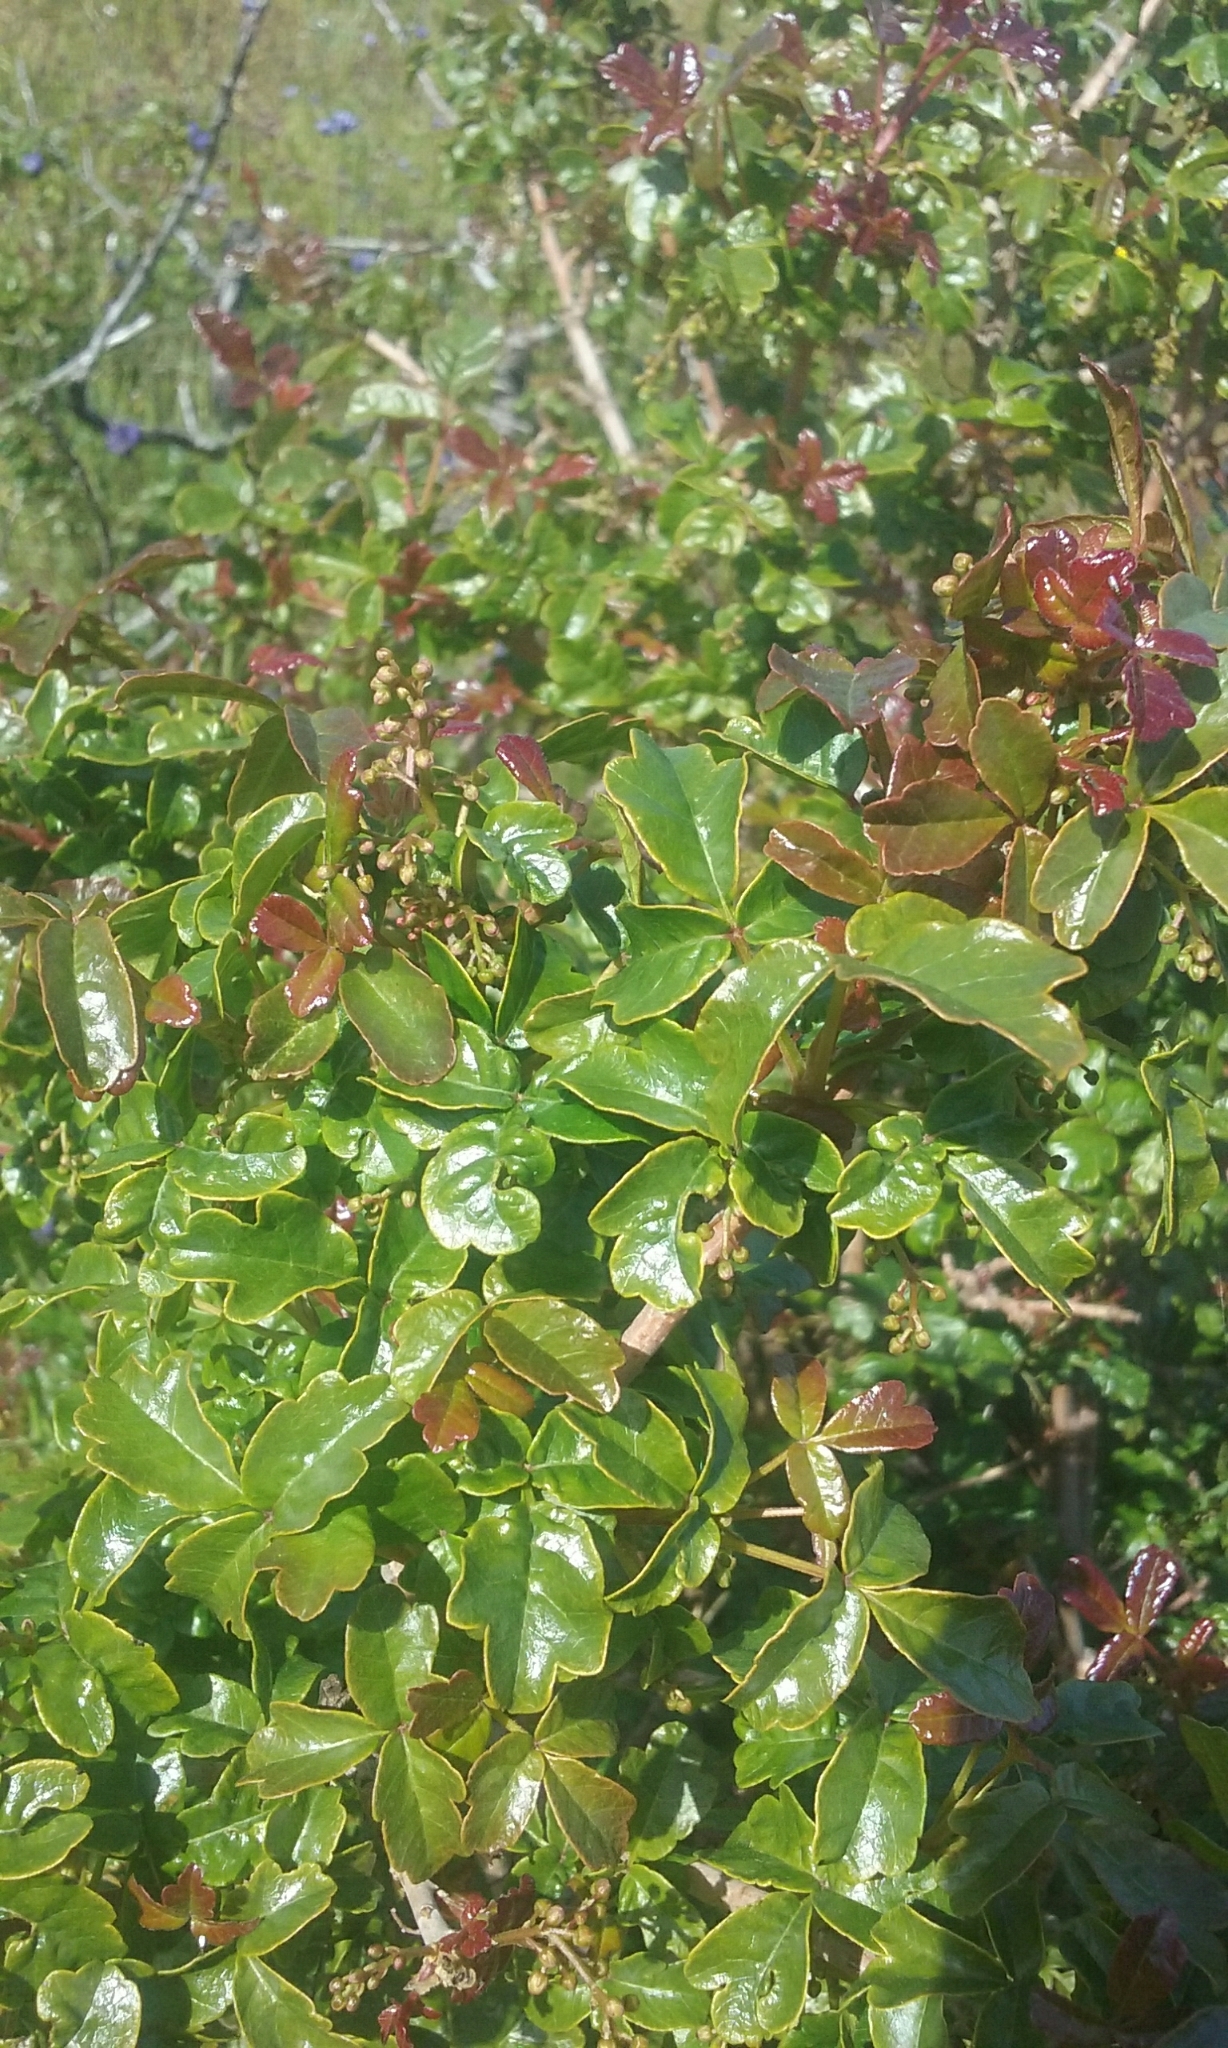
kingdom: Plantae
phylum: Tracheophyta
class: Magnoliopsida
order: Sapindales
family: Anacardiaceae
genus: Toxicodendron
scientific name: Toxicodendron diversilobum
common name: Pacific poison-oak
